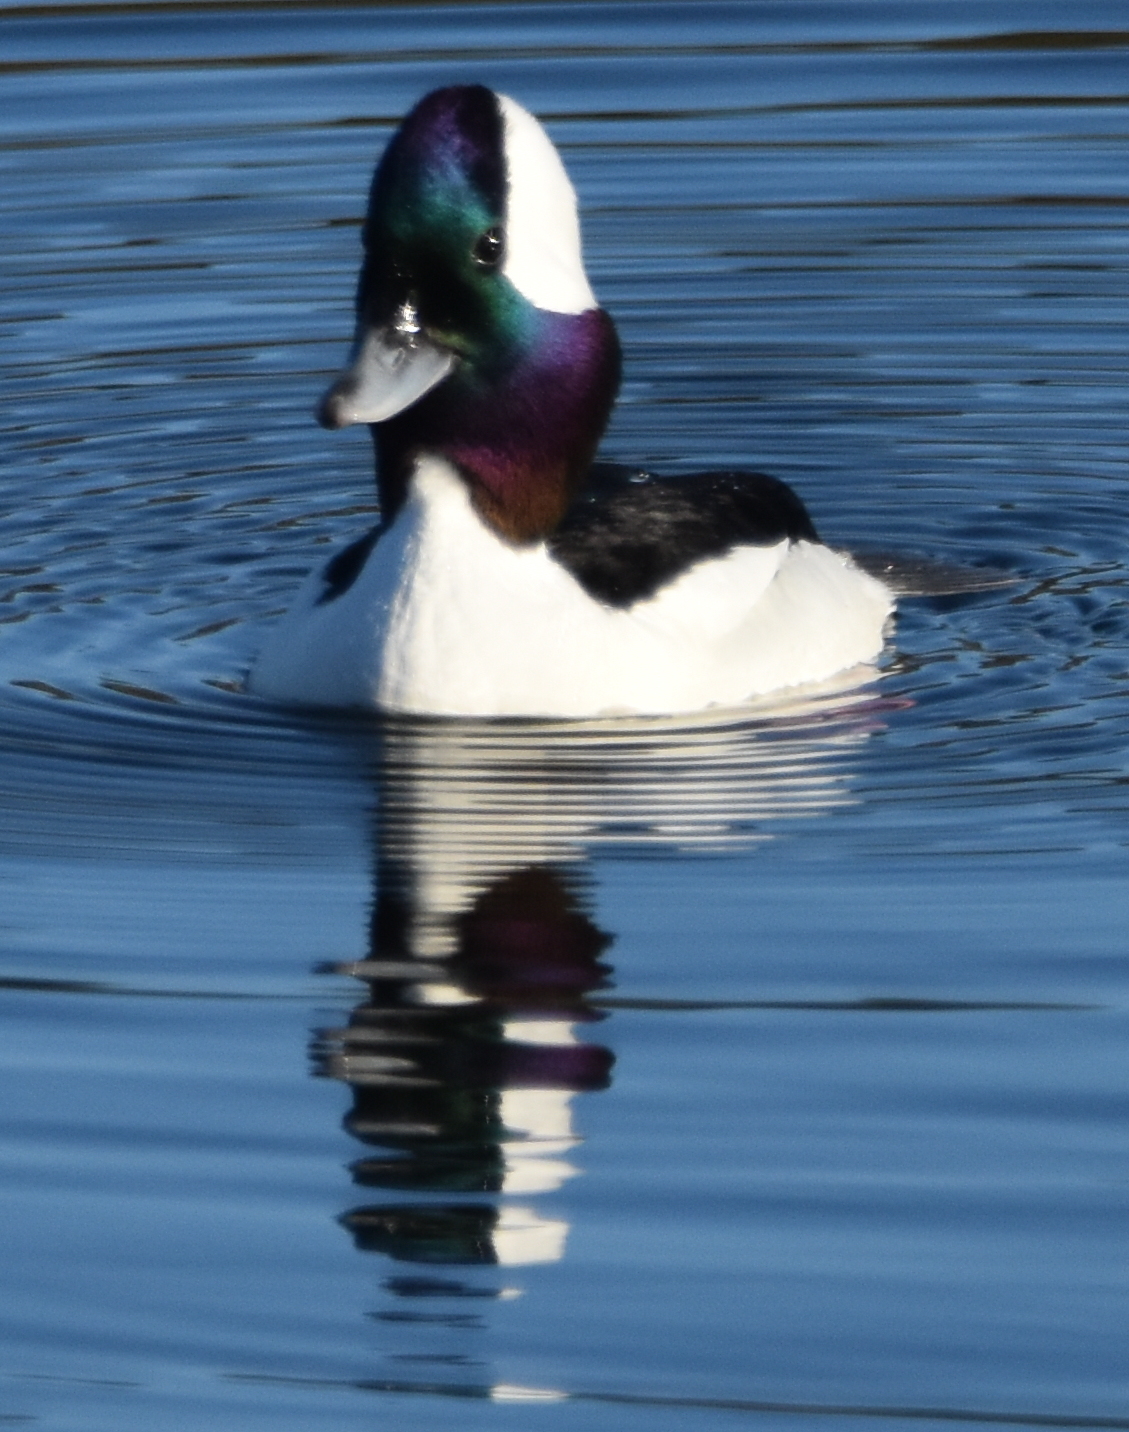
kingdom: Animalia
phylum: Chordata
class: Aves
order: Anseriformes
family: Anatidae
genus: Bucephala
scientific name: Bucephala albeola
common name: Bufflehead
